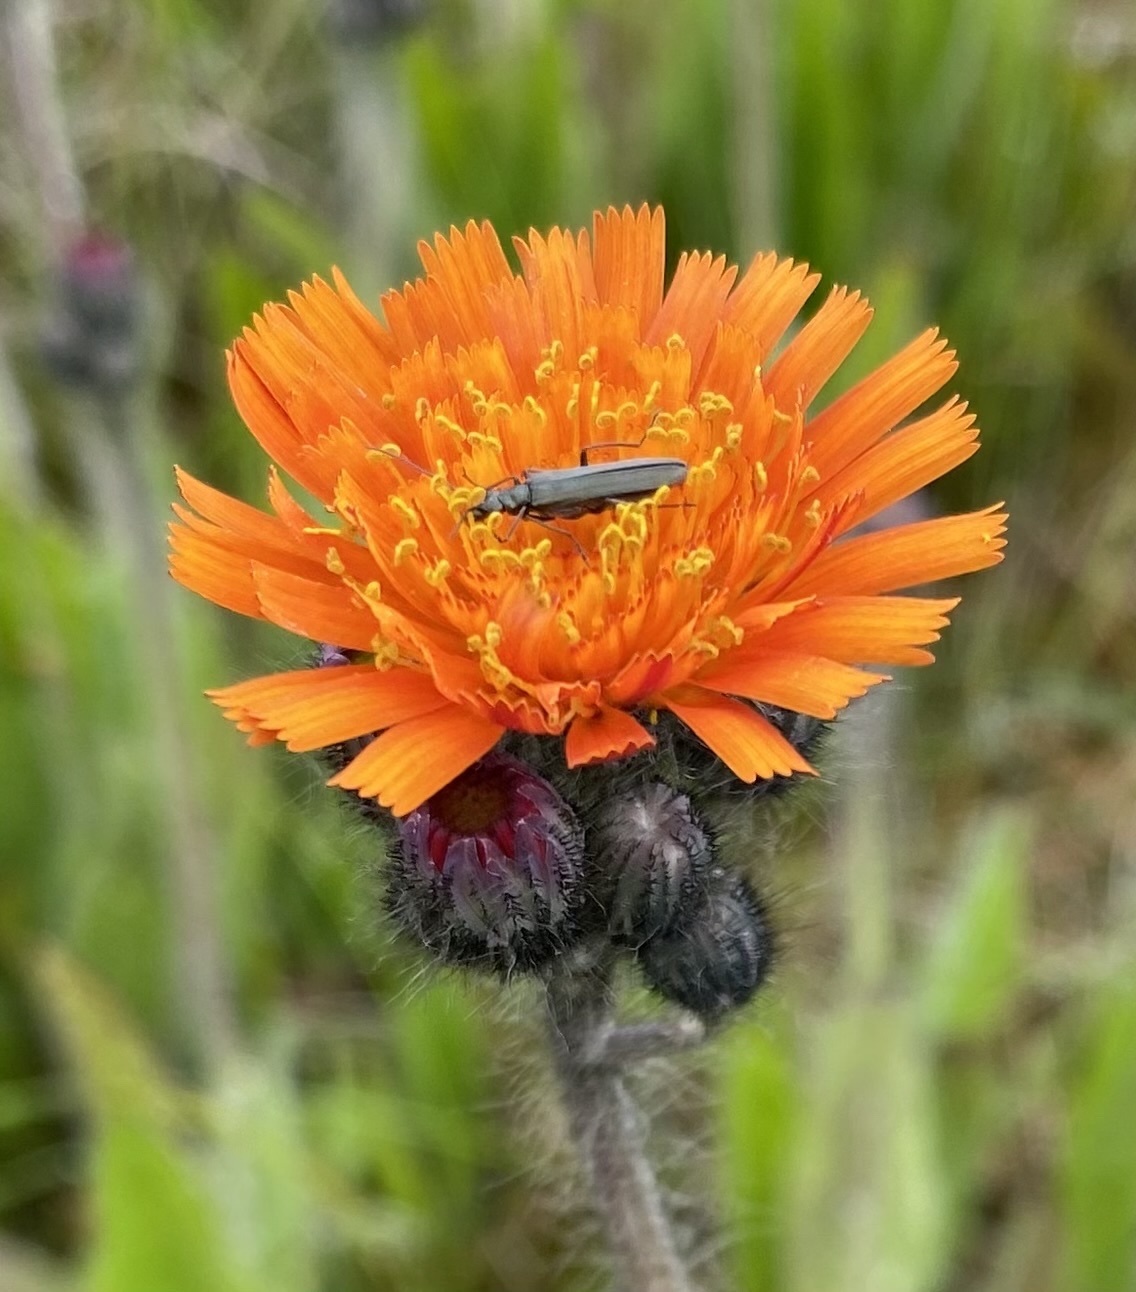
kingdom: Plantae
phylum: Tracheophyta
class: Magnoliopsida
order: Asterales
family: Asteraceae
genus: Pilosella
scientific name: Pilosella aurantiaca
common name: Fox-and-cubs
